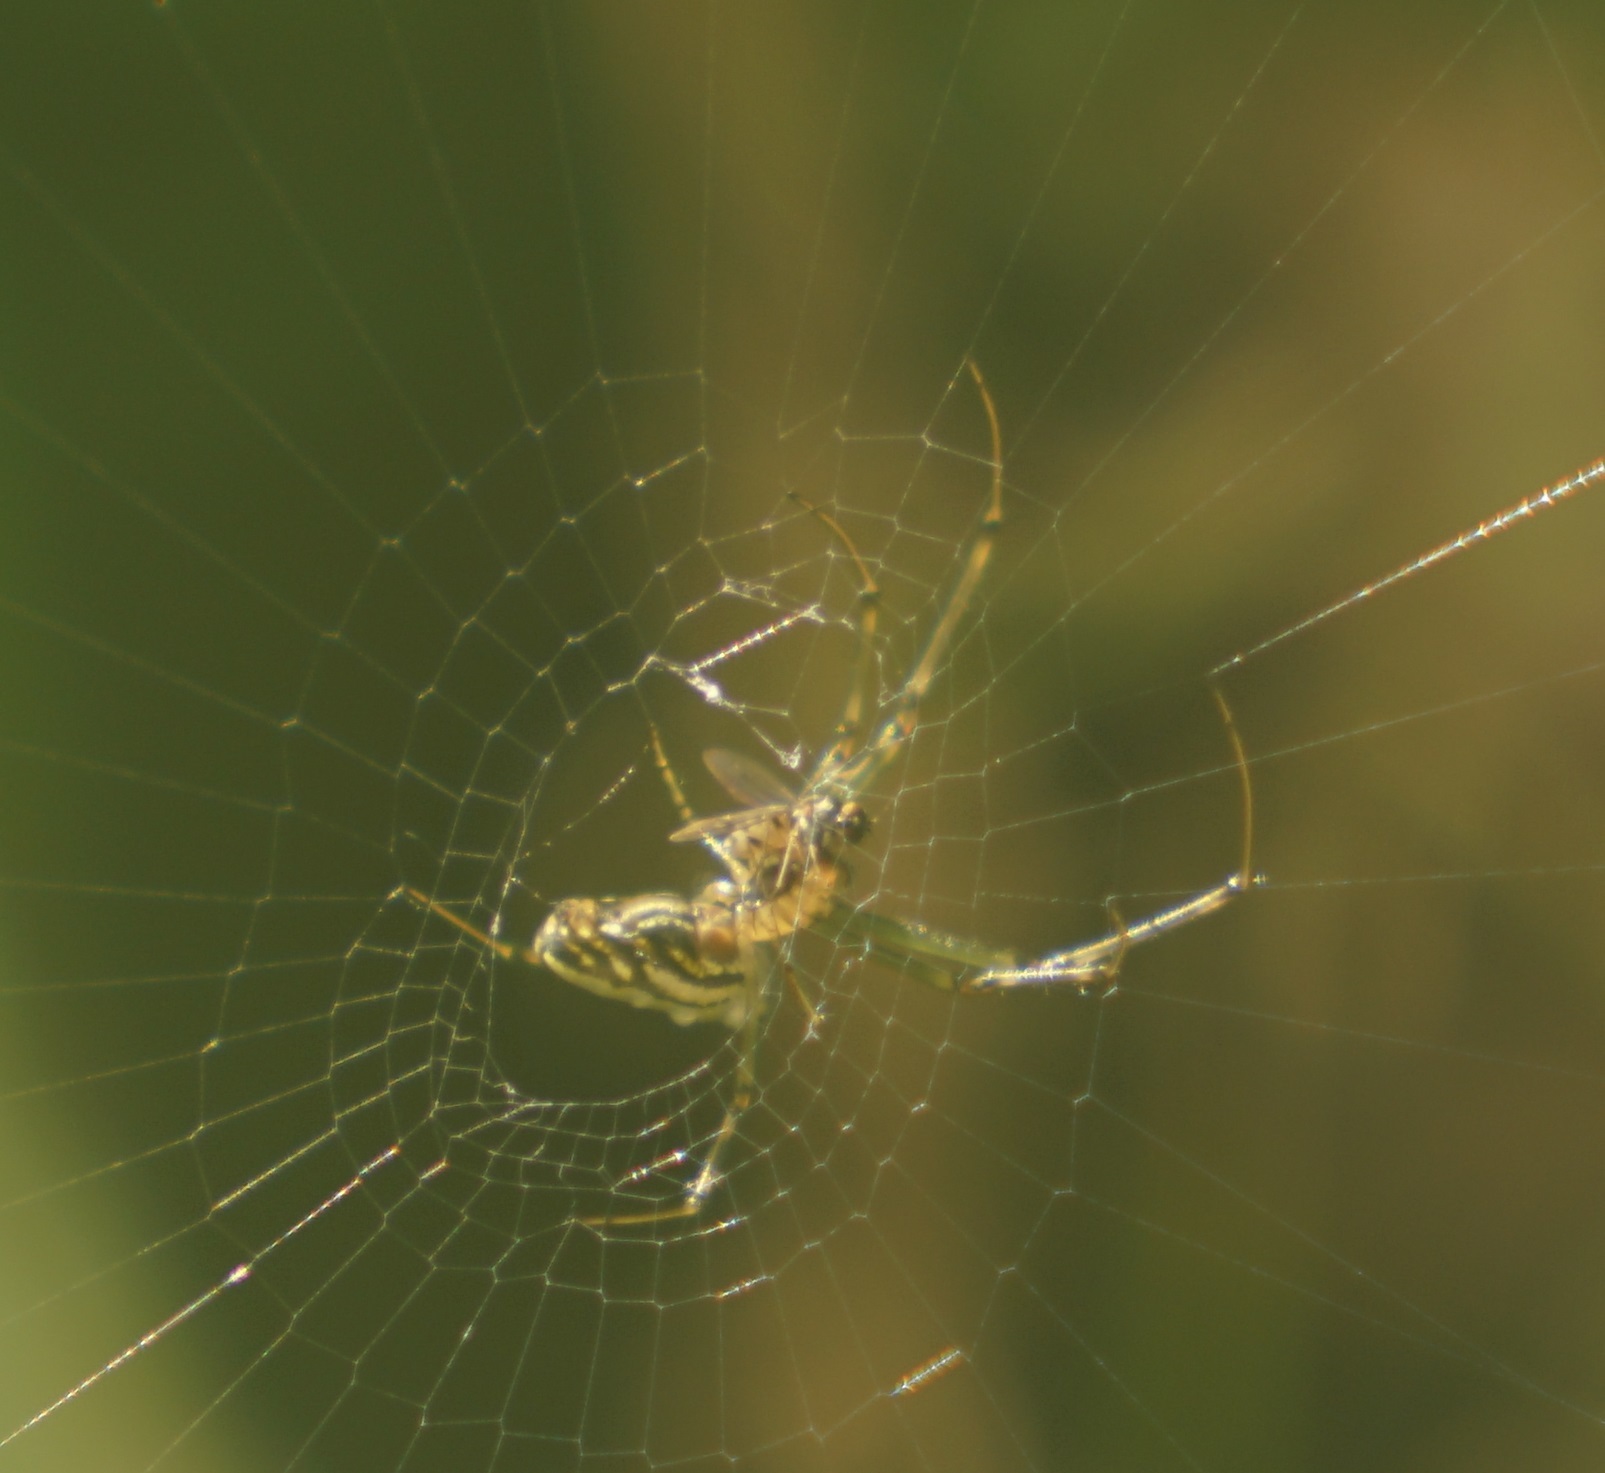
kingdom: Animalia
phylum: Arthropoda
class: Arachnida
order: Araneae
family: Tetragnathidae
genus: Leucauge
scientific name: Leucauge dromedaria
